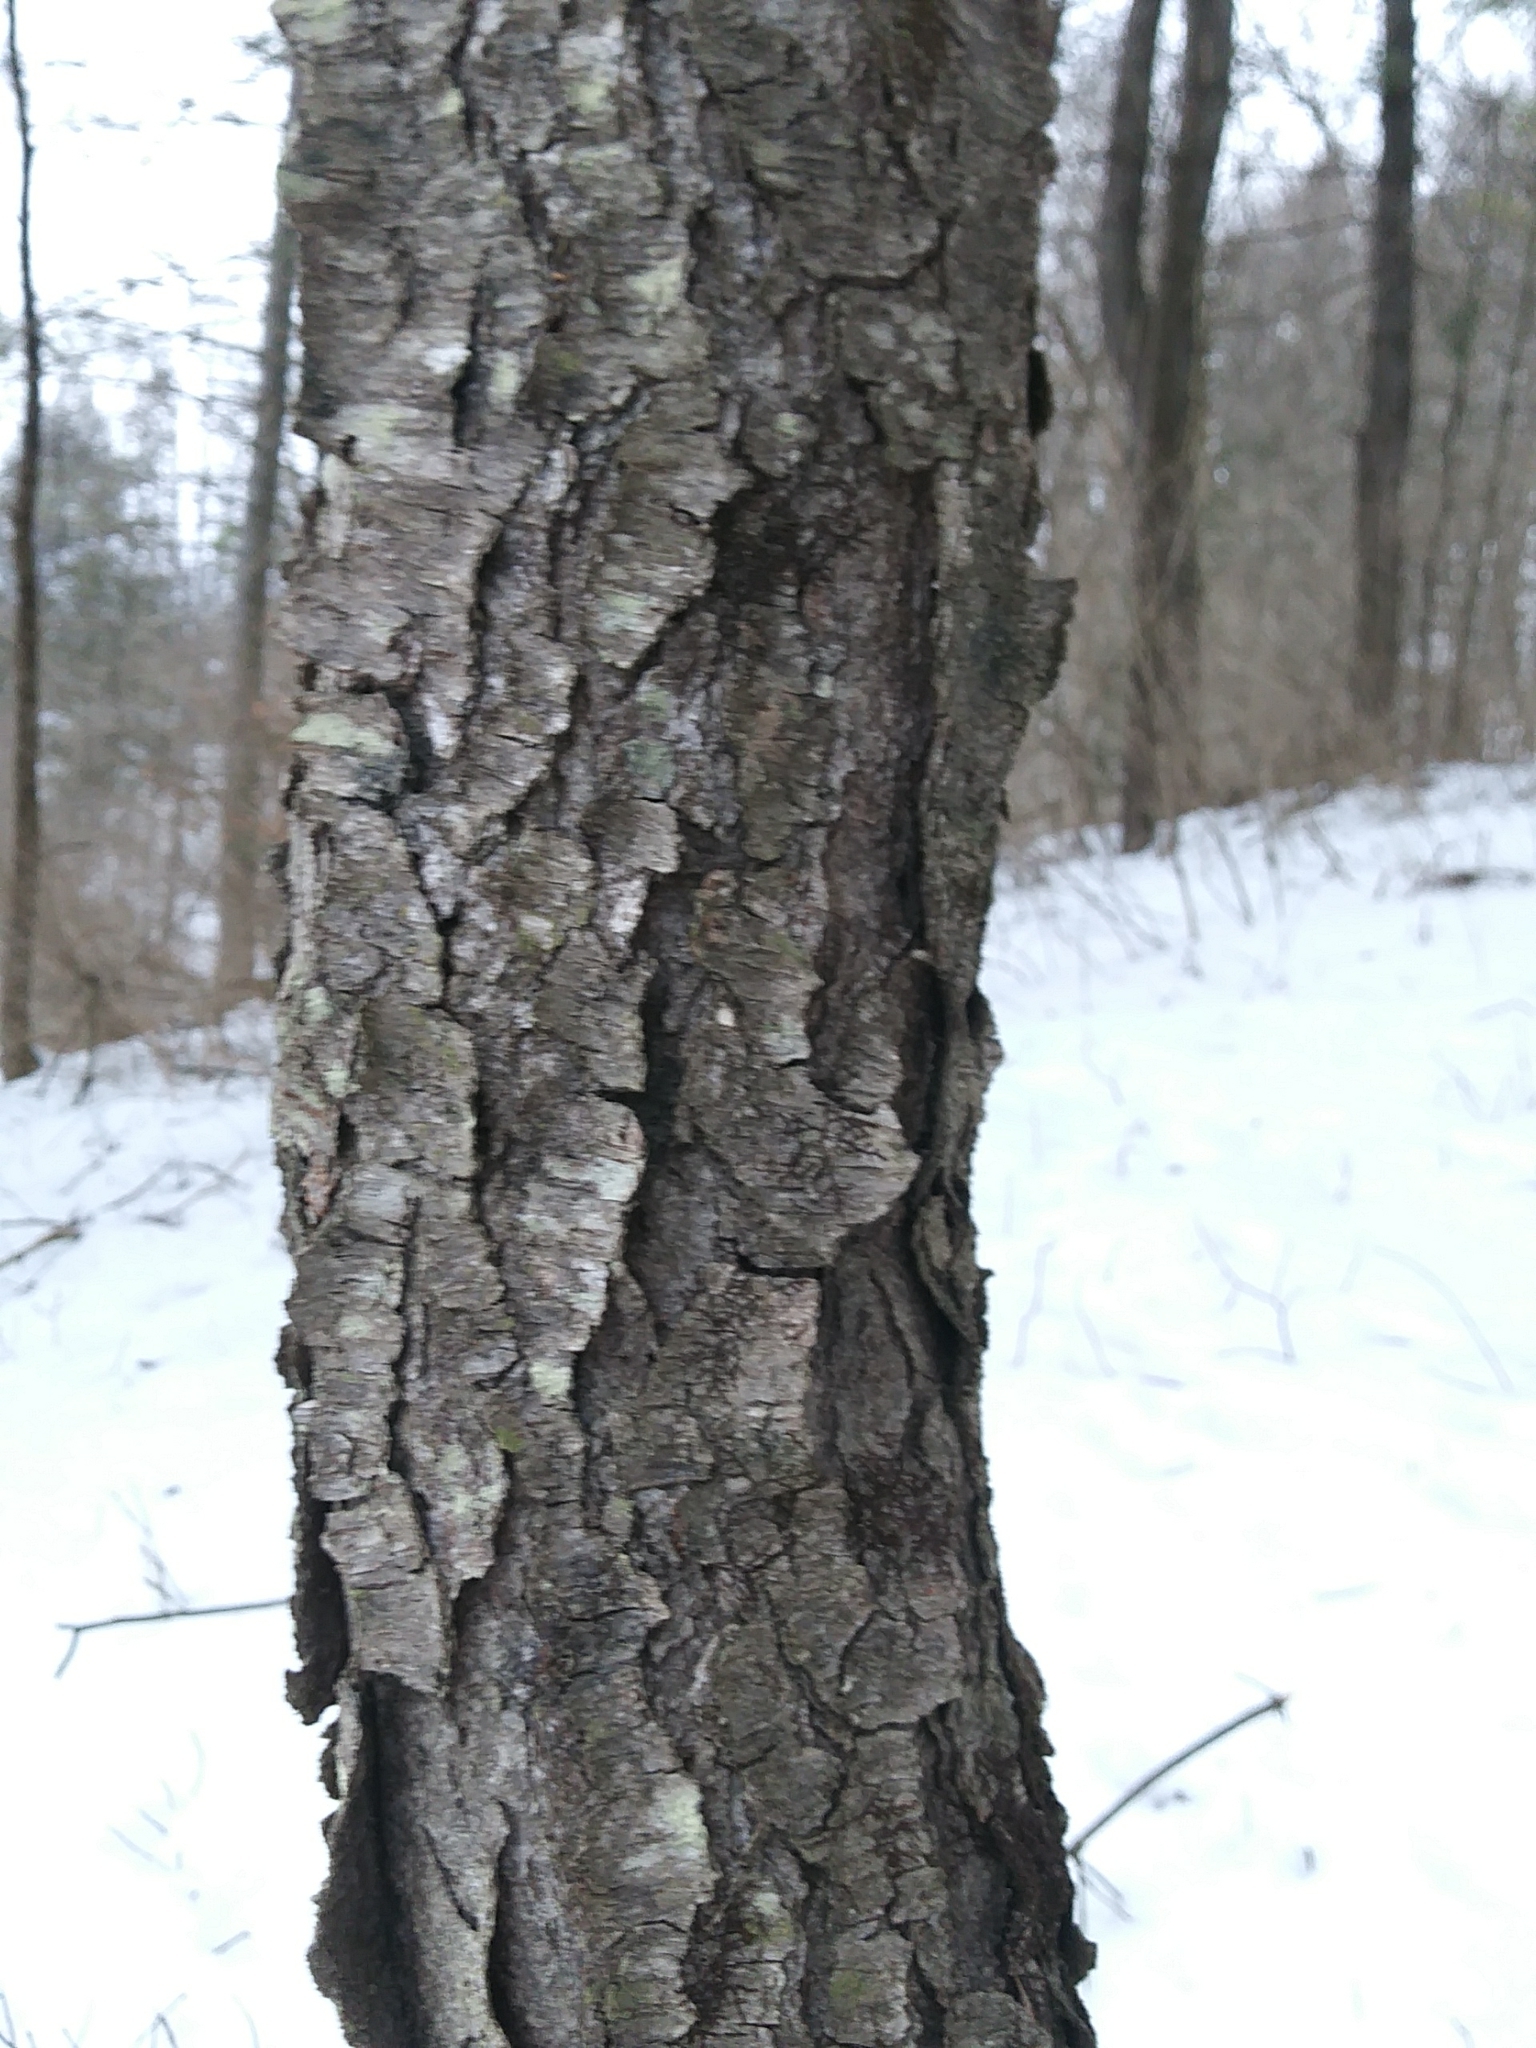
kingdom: Plantae
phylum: Tracheophyta
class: Magnoliopsida
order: Rosales
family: Rosaceae
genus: Prunus
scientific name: Prunus serotina
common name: Black cherry
